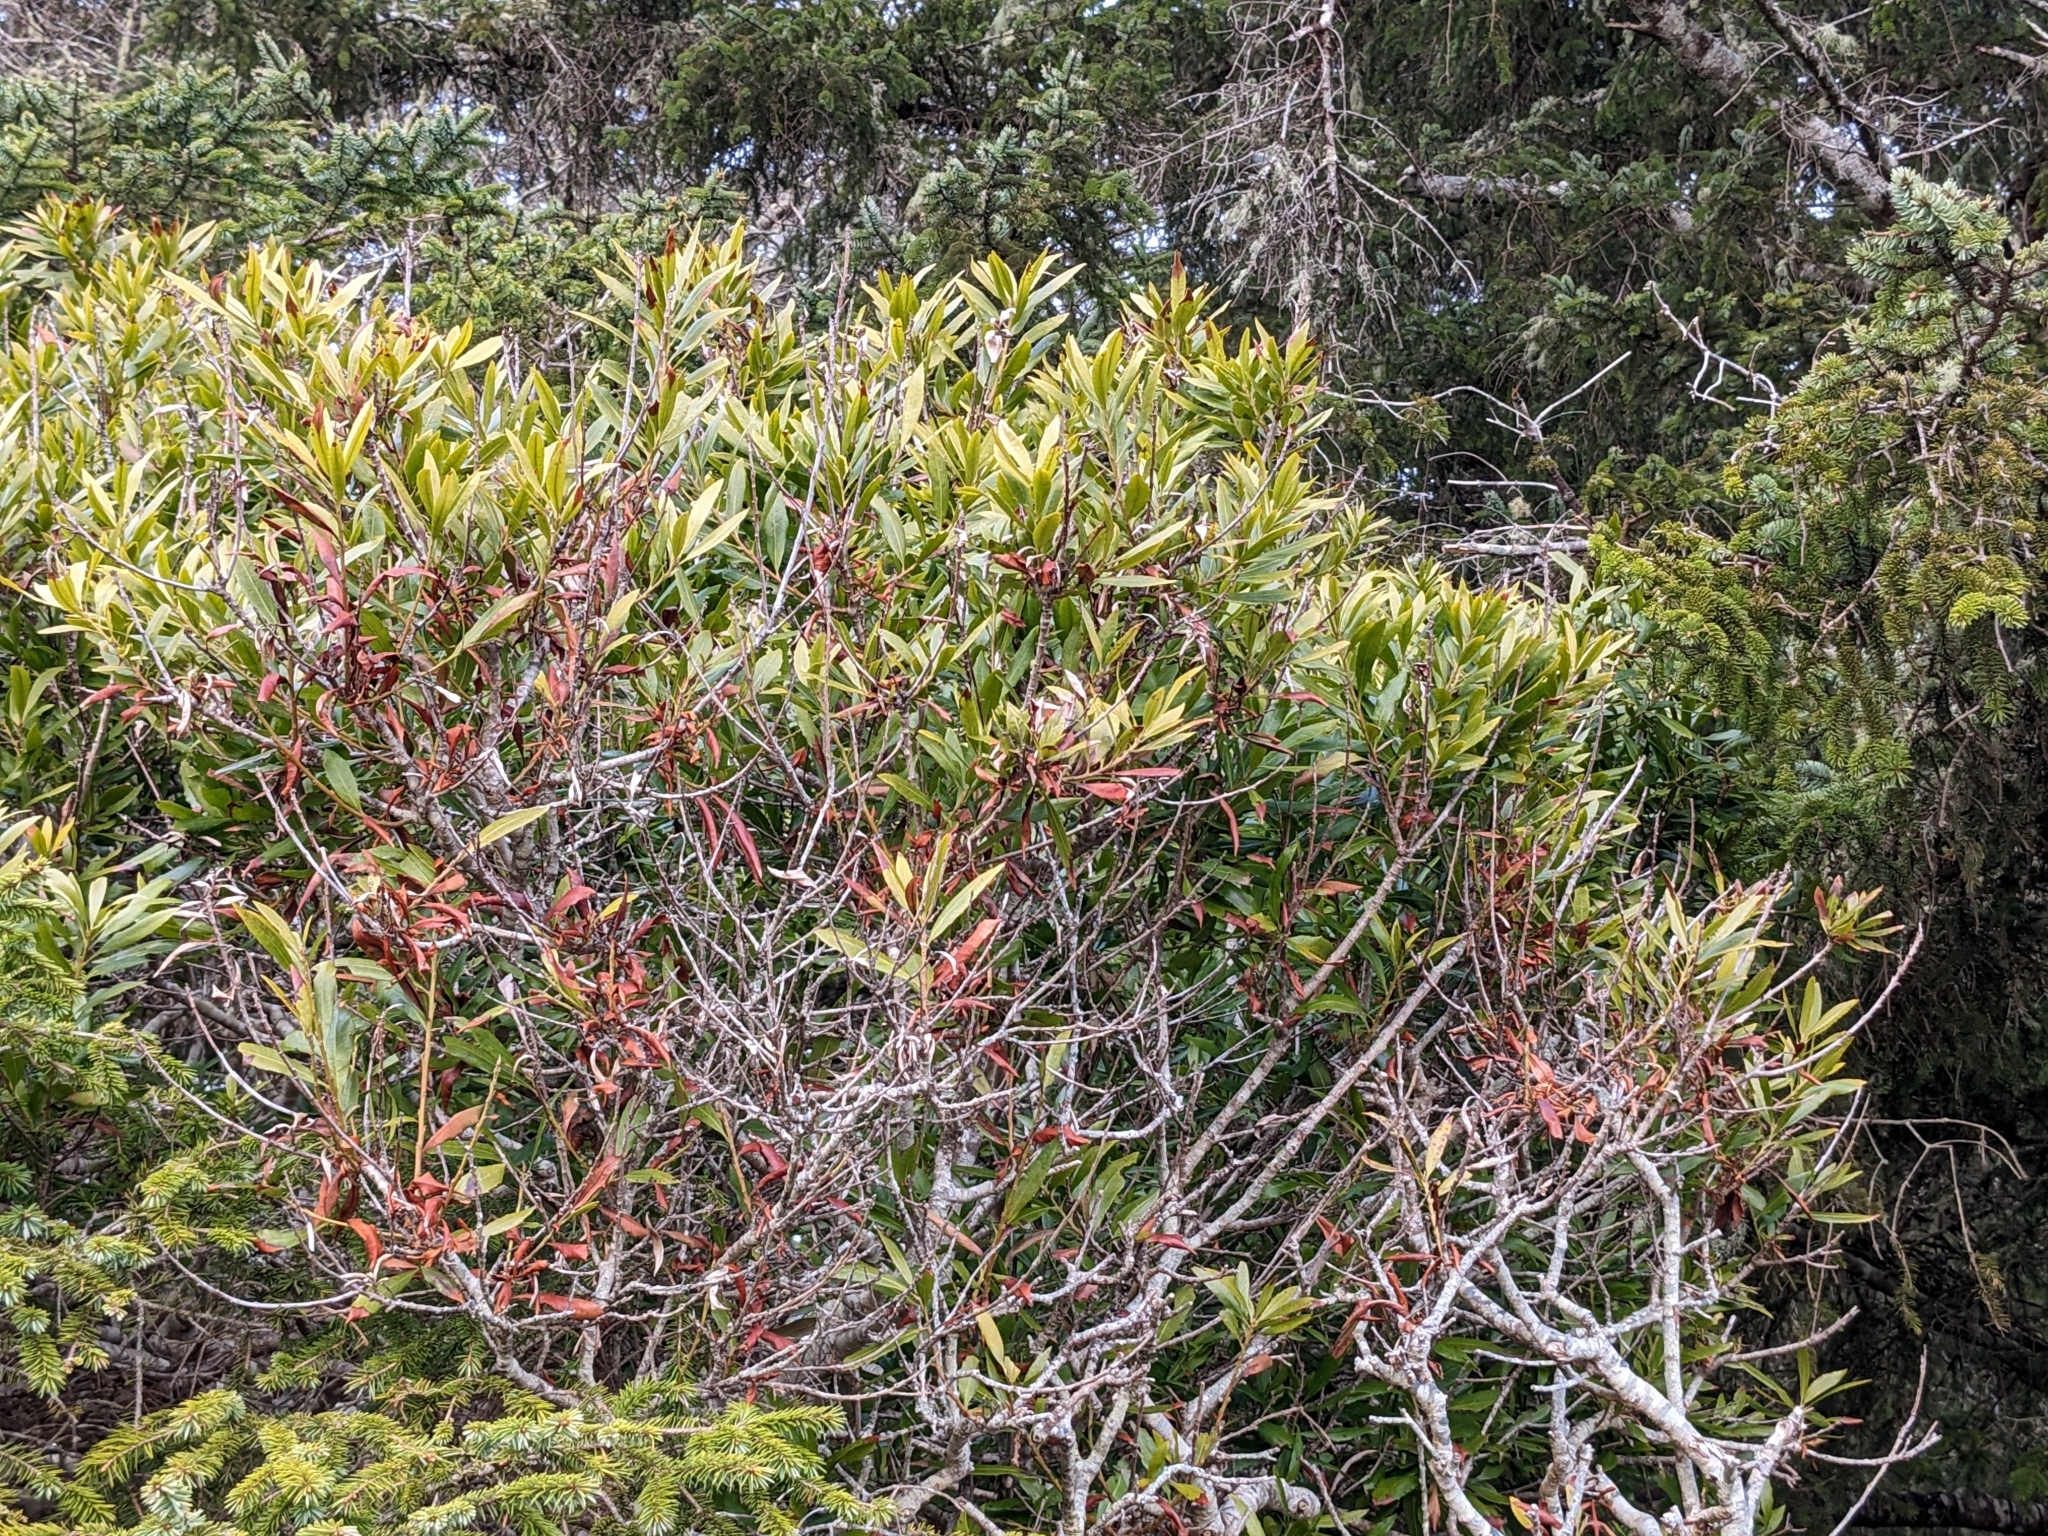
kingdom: Plantae
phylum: Tracheophyta
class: Magnoliopsida
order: Fagales
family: Myricaceae
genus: Morella
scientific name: Morella californica
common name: California wax-myrtle
